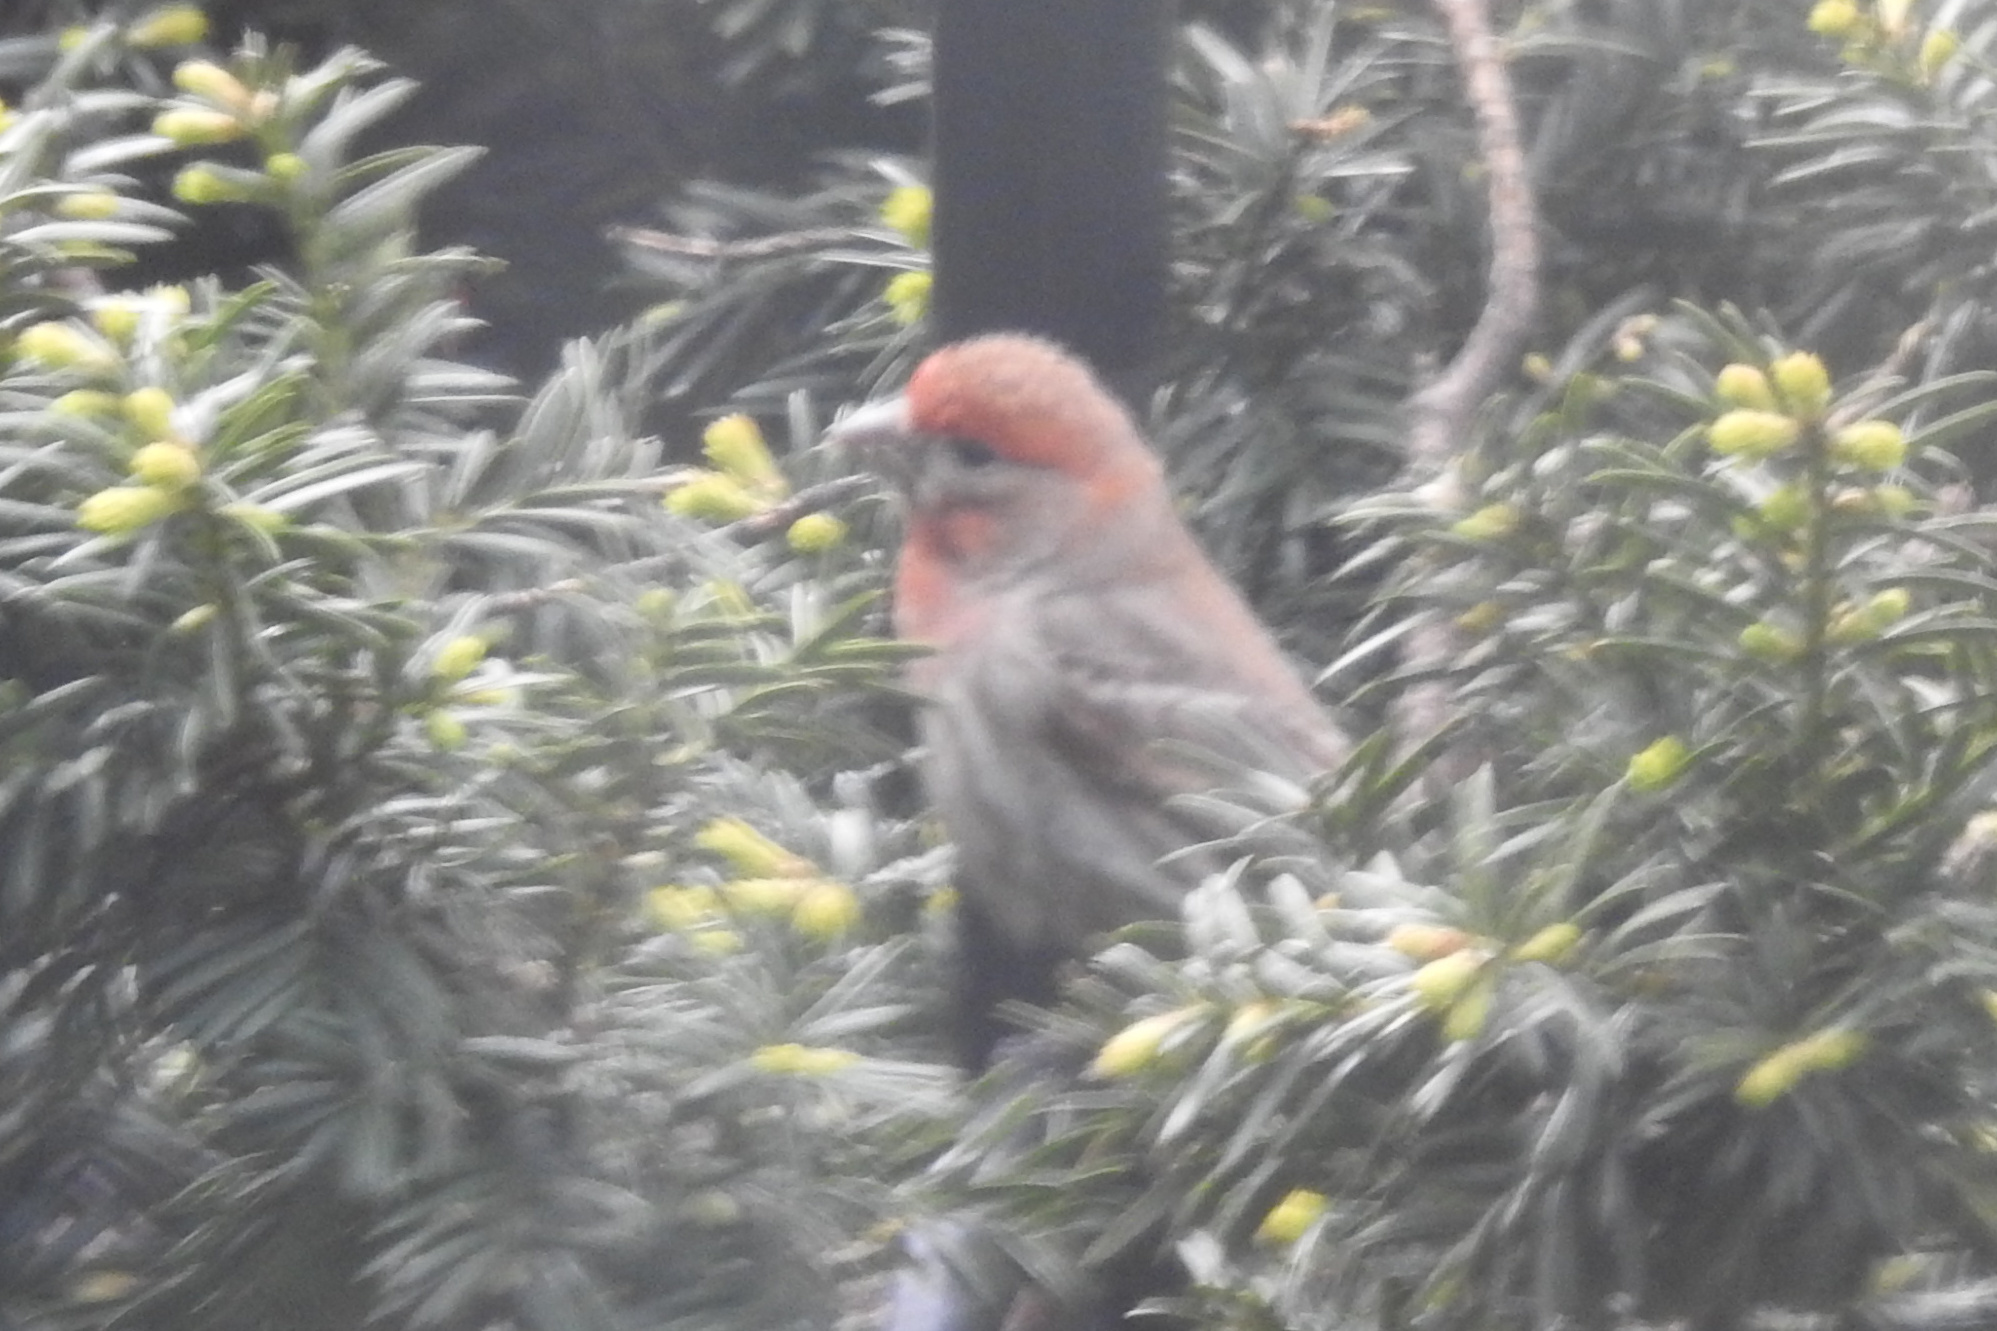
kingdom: Animalia
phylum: Chordata
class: Aves
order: Passeriformes
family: Fringillidae
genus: Haemorhous
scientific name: Haemorhous mexicanus
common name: House finch
